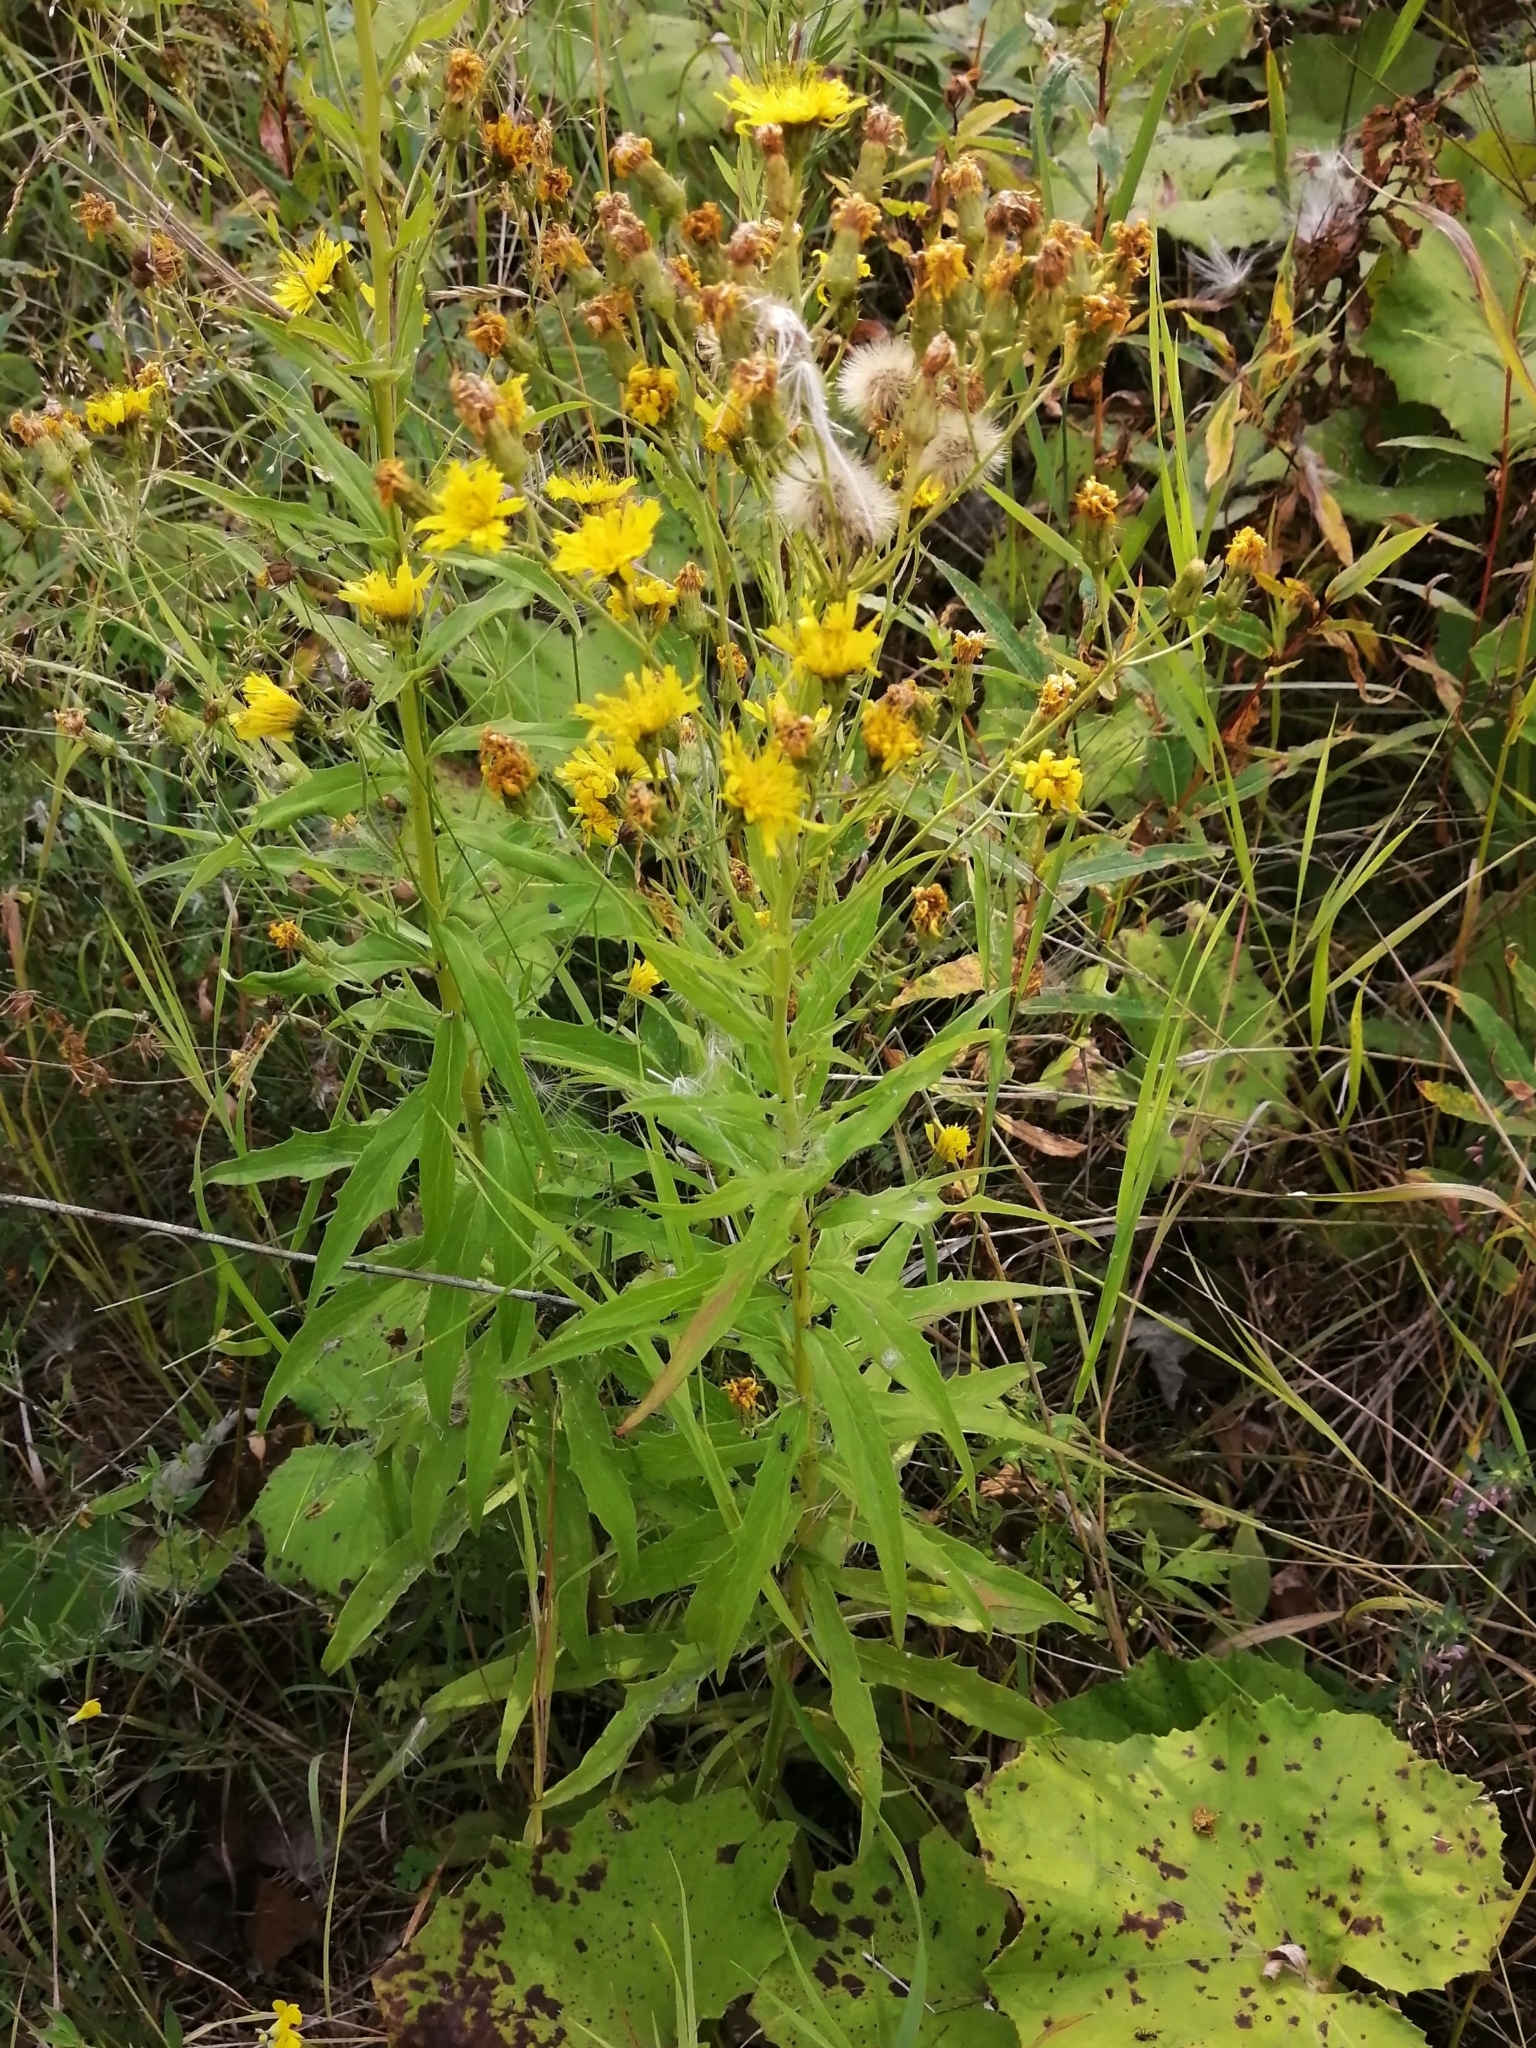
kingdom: Plantae
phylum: Tracheophyta
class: Magnoliopsida
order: Asterales
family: Asteraceae
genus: Hieracium
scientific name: Hieracium umbellatum
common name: Northern hawkweed
